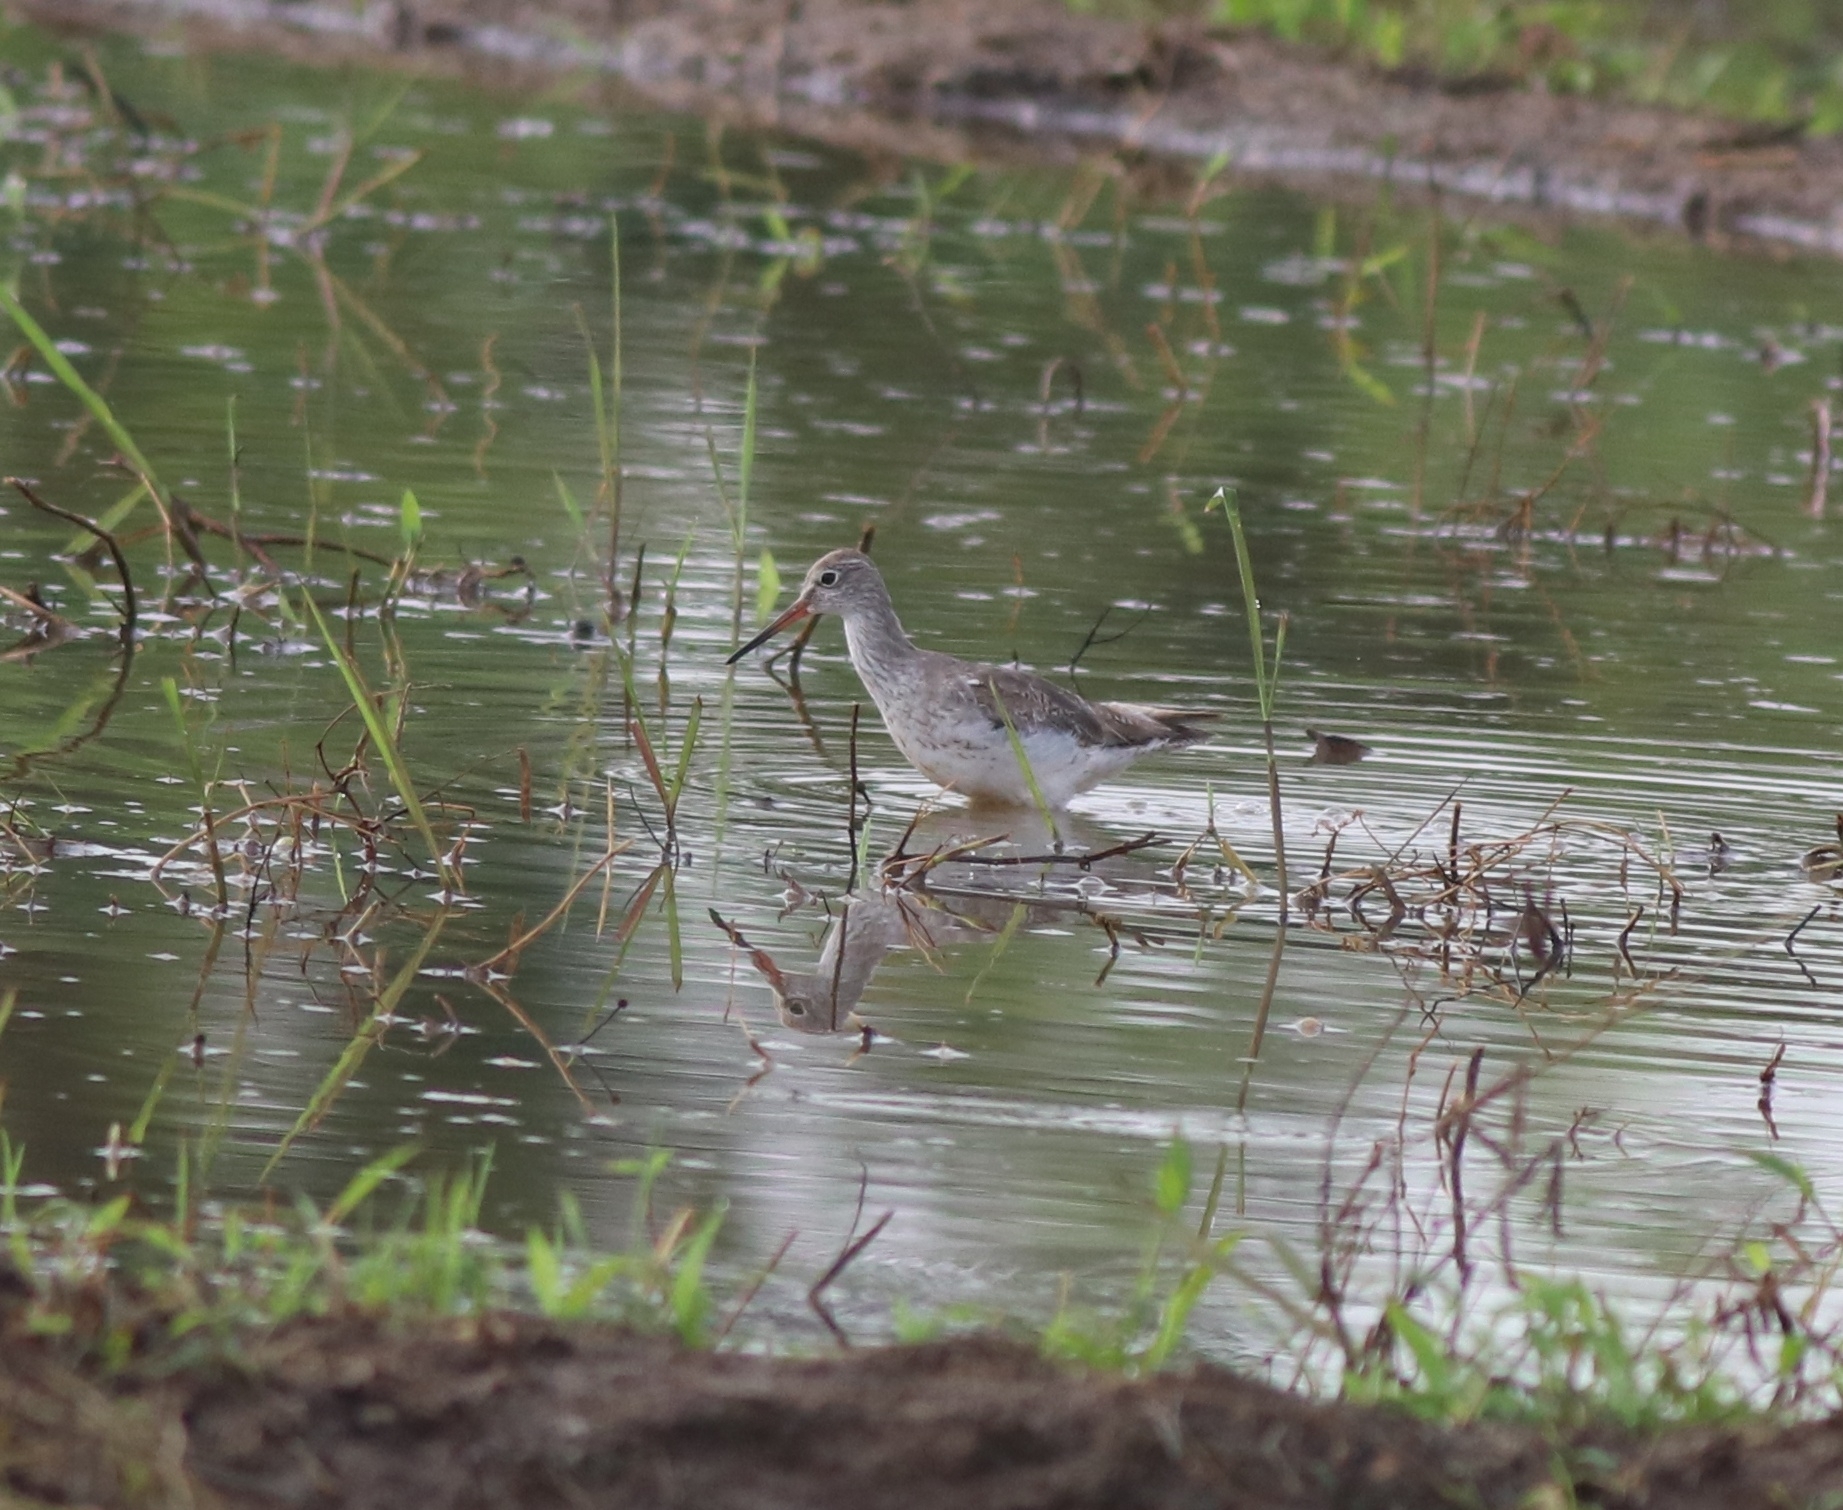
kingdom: Animalia
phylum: Chordata
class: Aves
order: Charadriiformes
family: Scolopacidae
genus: Tringa
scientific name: Tringa totanus
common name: Common redshank
